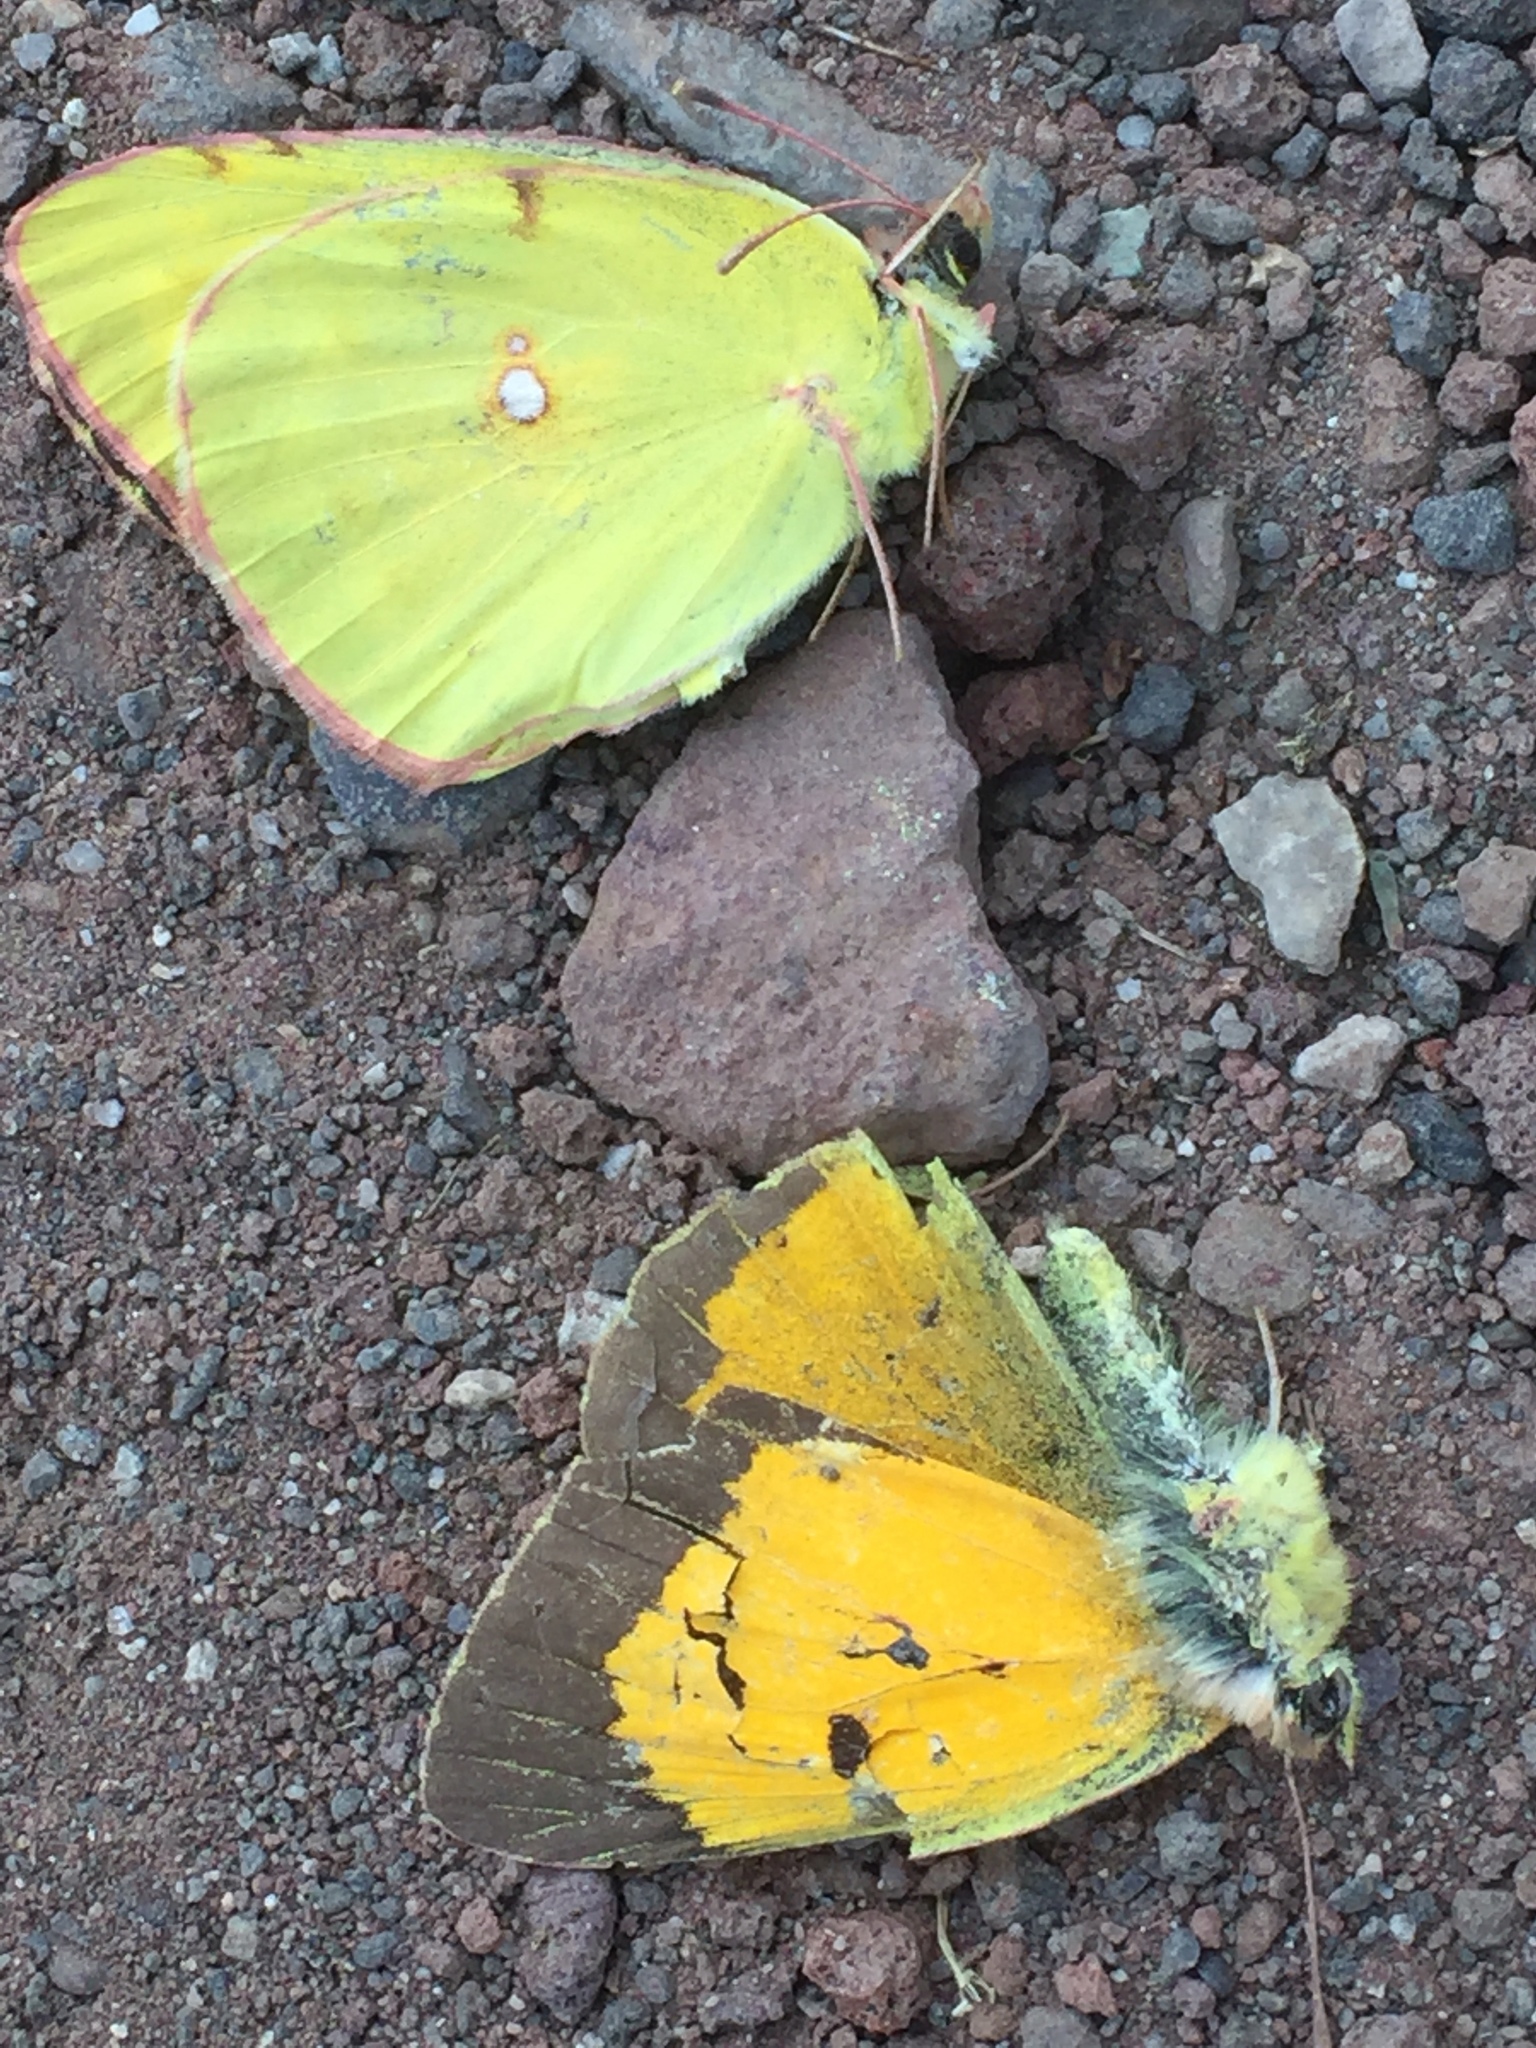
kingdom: Animalia
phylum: Arthropoda
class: Insecta
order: Lepidoptera
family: Pieridae
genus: Colias
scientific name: Colias croceus
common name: Clouded yellow
